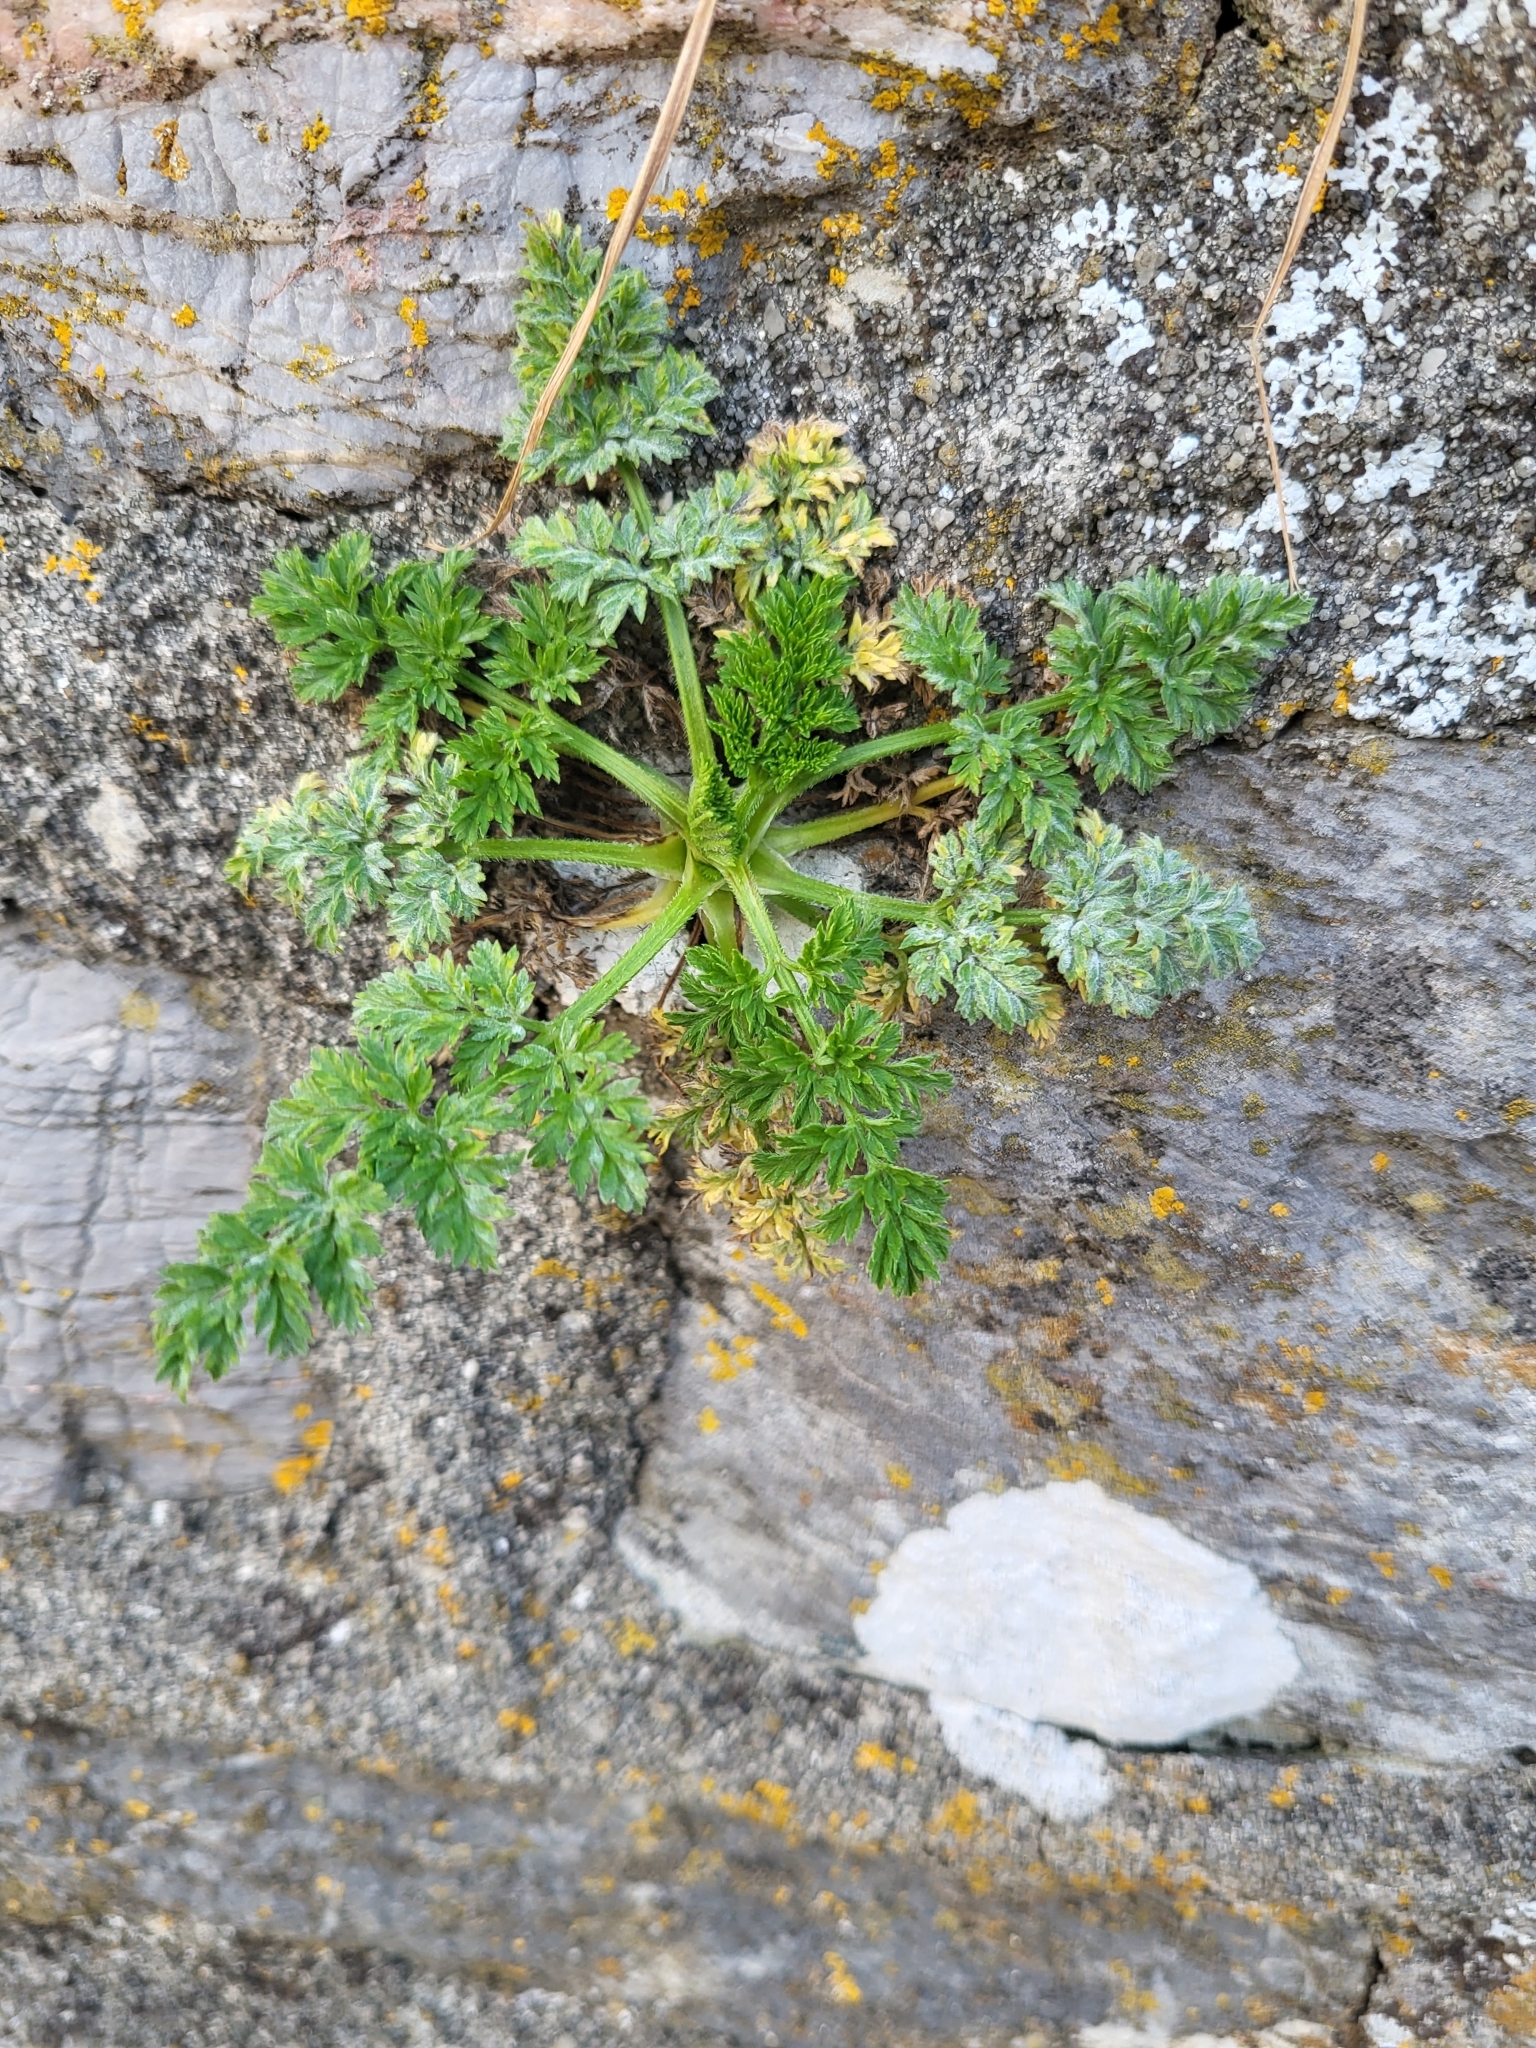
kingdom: Plantae
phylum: Tracheophyta
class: Magnoliopsida
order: Apiales
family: Apiaceae
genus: Daucus
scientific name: Daucus carota
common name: Wild carrot
